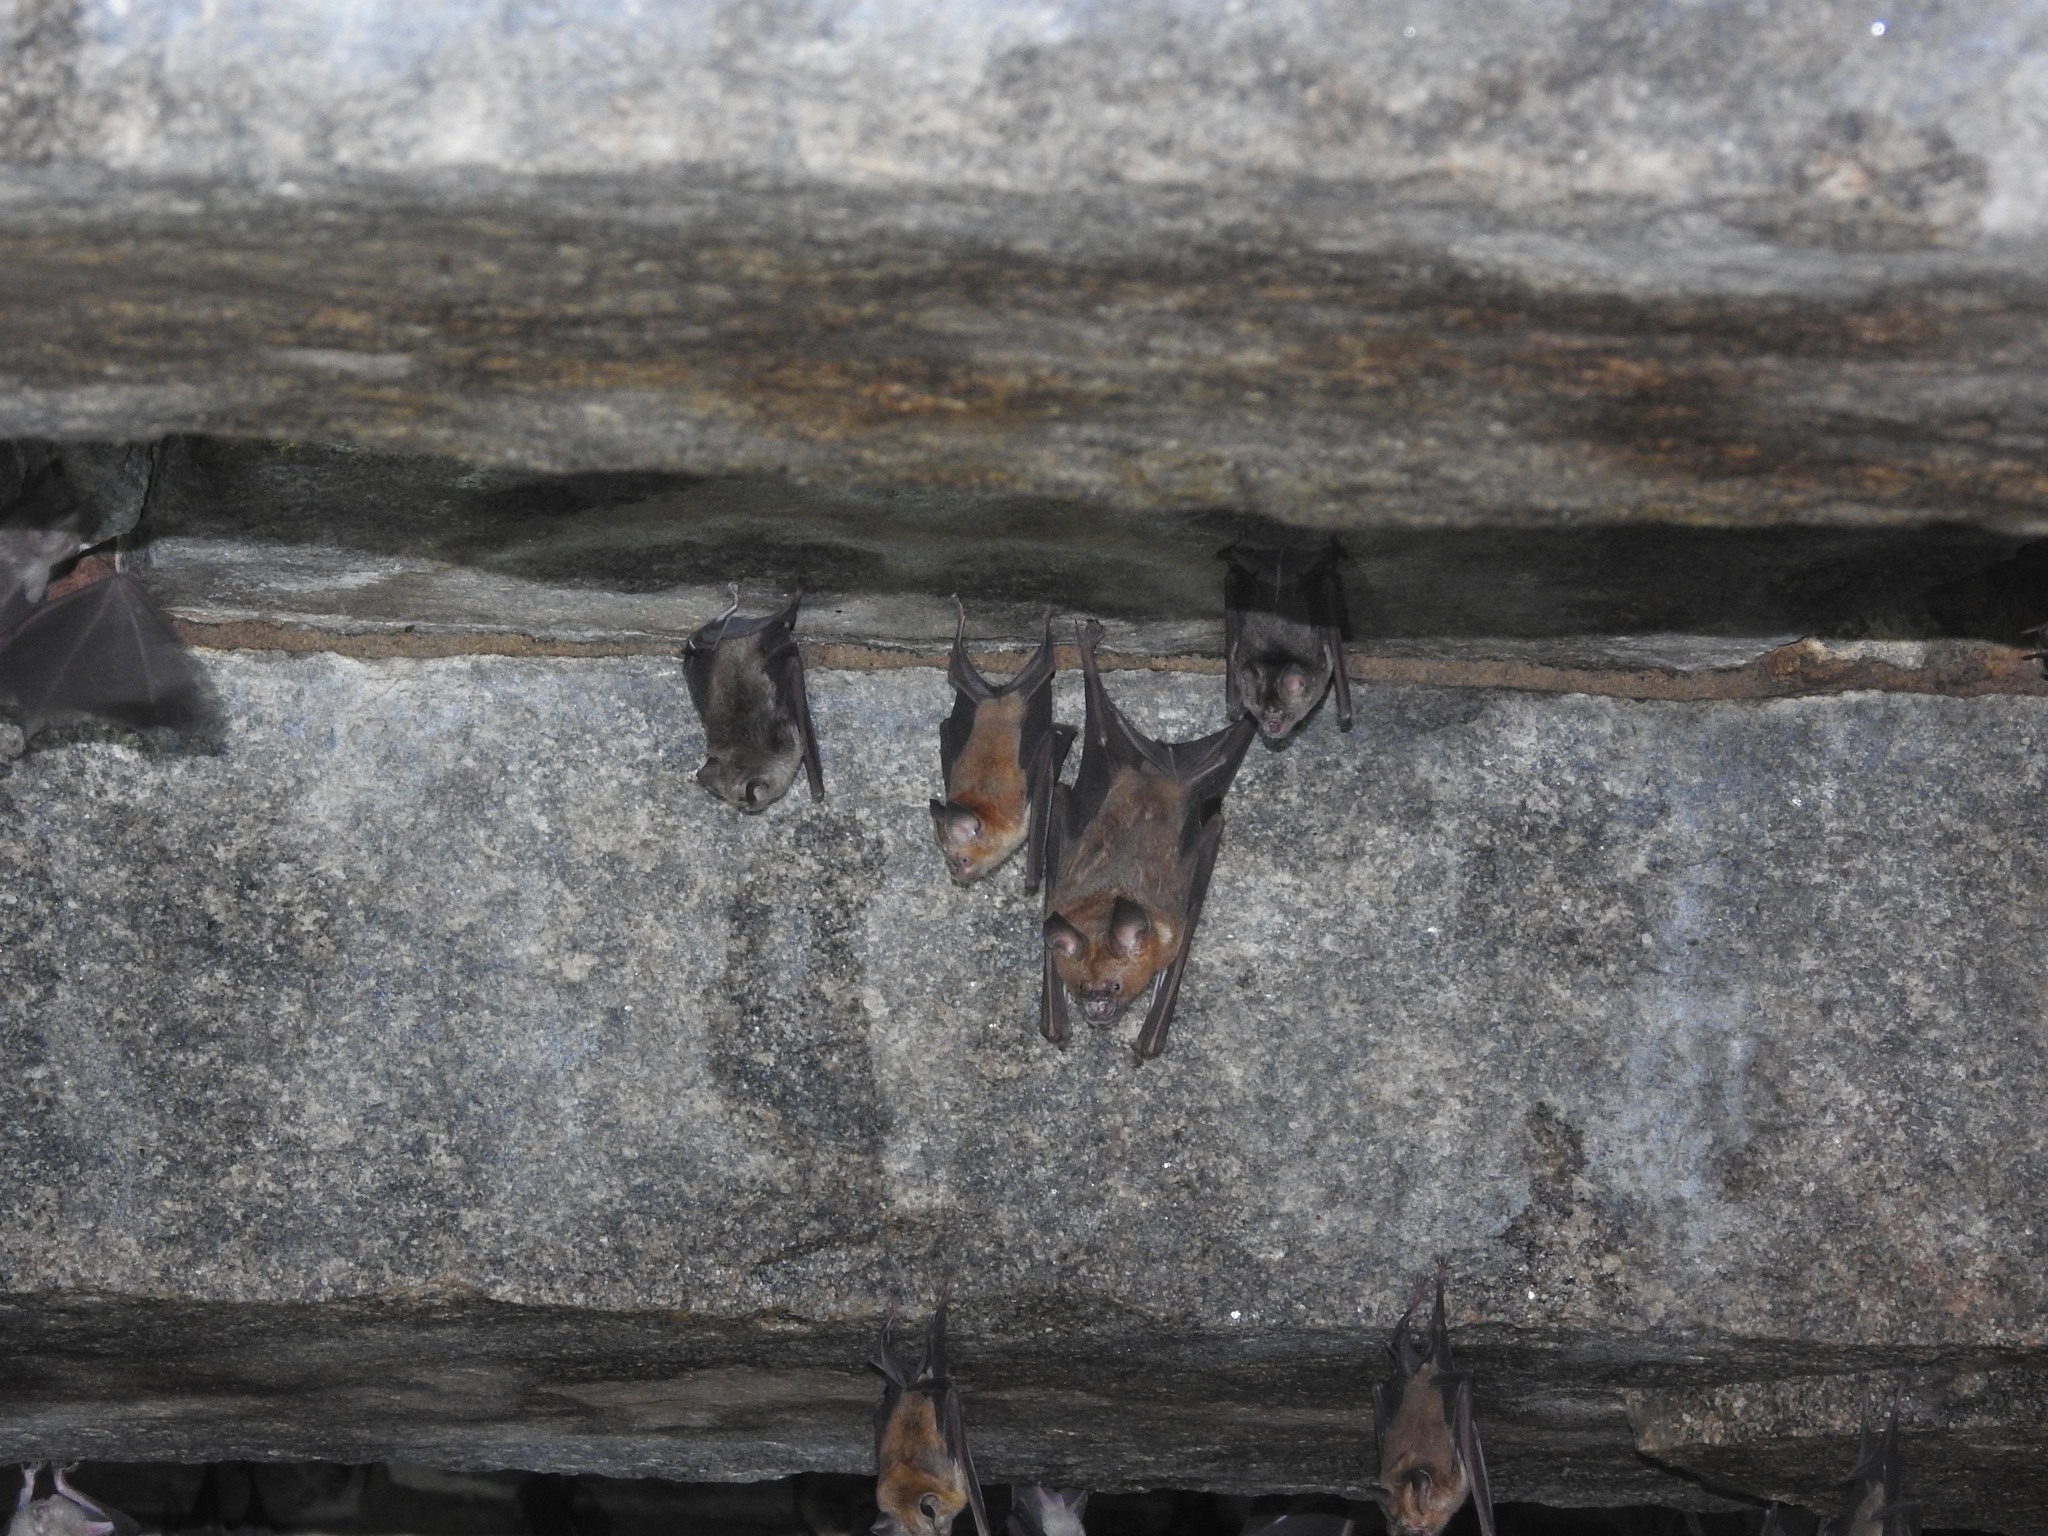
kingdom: Animalia
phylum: Chordata
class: Mammalia
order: Chiroptera
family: Hipposideridae
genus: Hipposideros
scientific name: Hipposideros lankadiva
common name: Indian leaf-nosed bat
